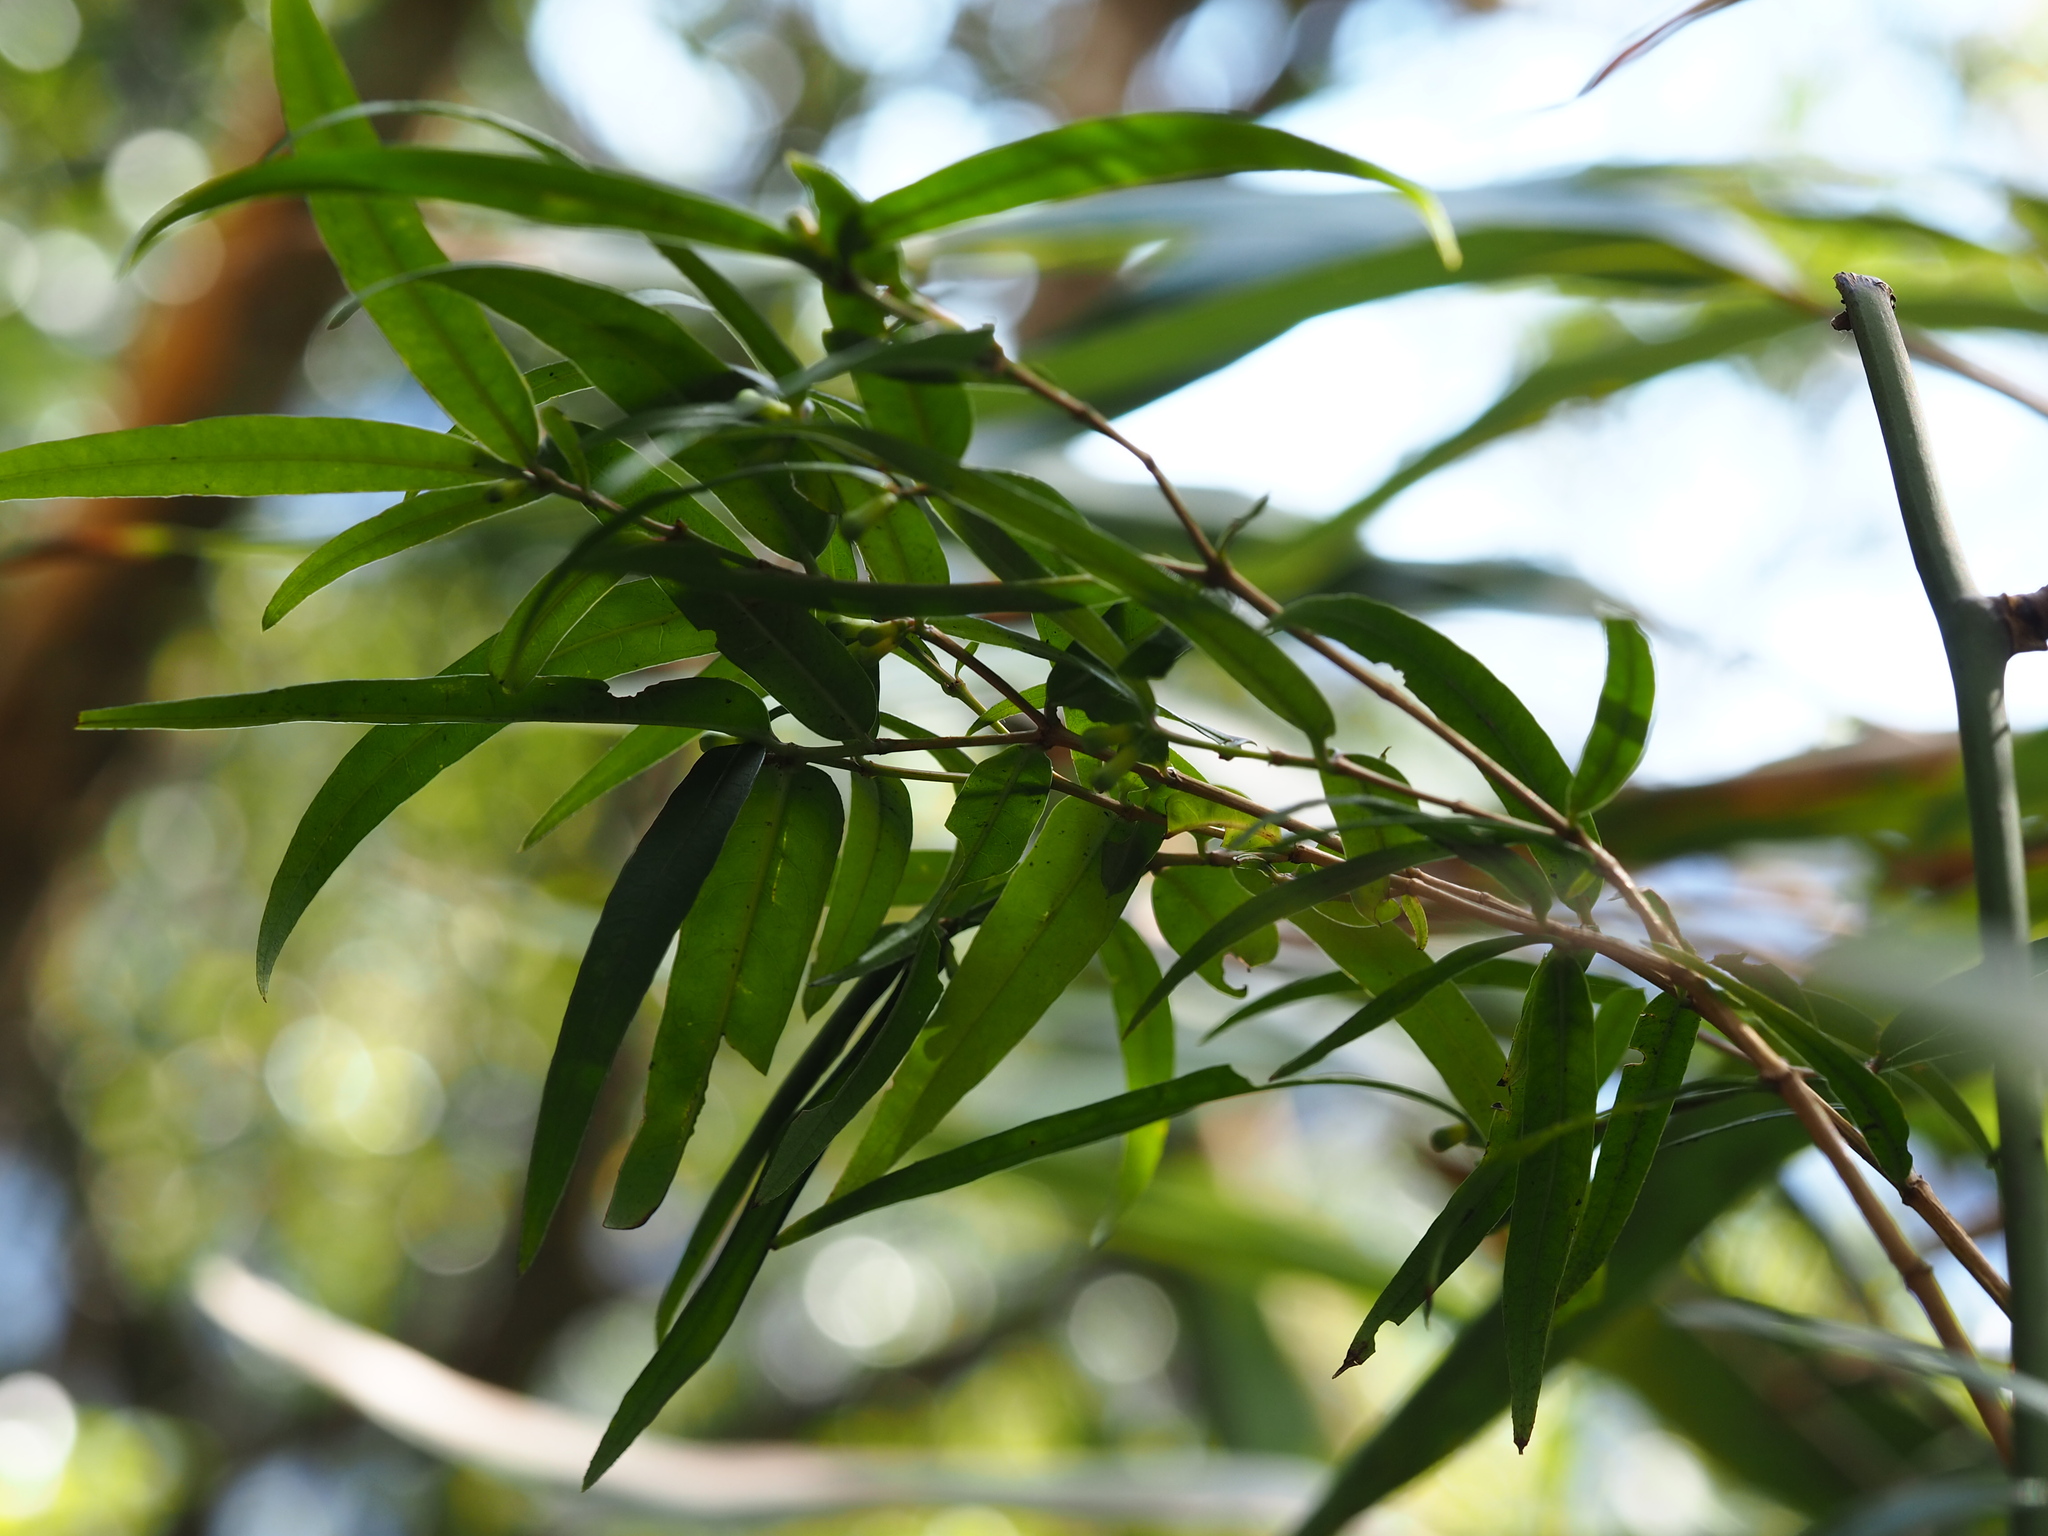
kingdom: Plantae
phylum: Tracheophyta
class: Magnoliopsida
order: Gentianales
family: Rubiaceae
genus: Damnacanthus
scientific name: Damnacanthus angustifolius
